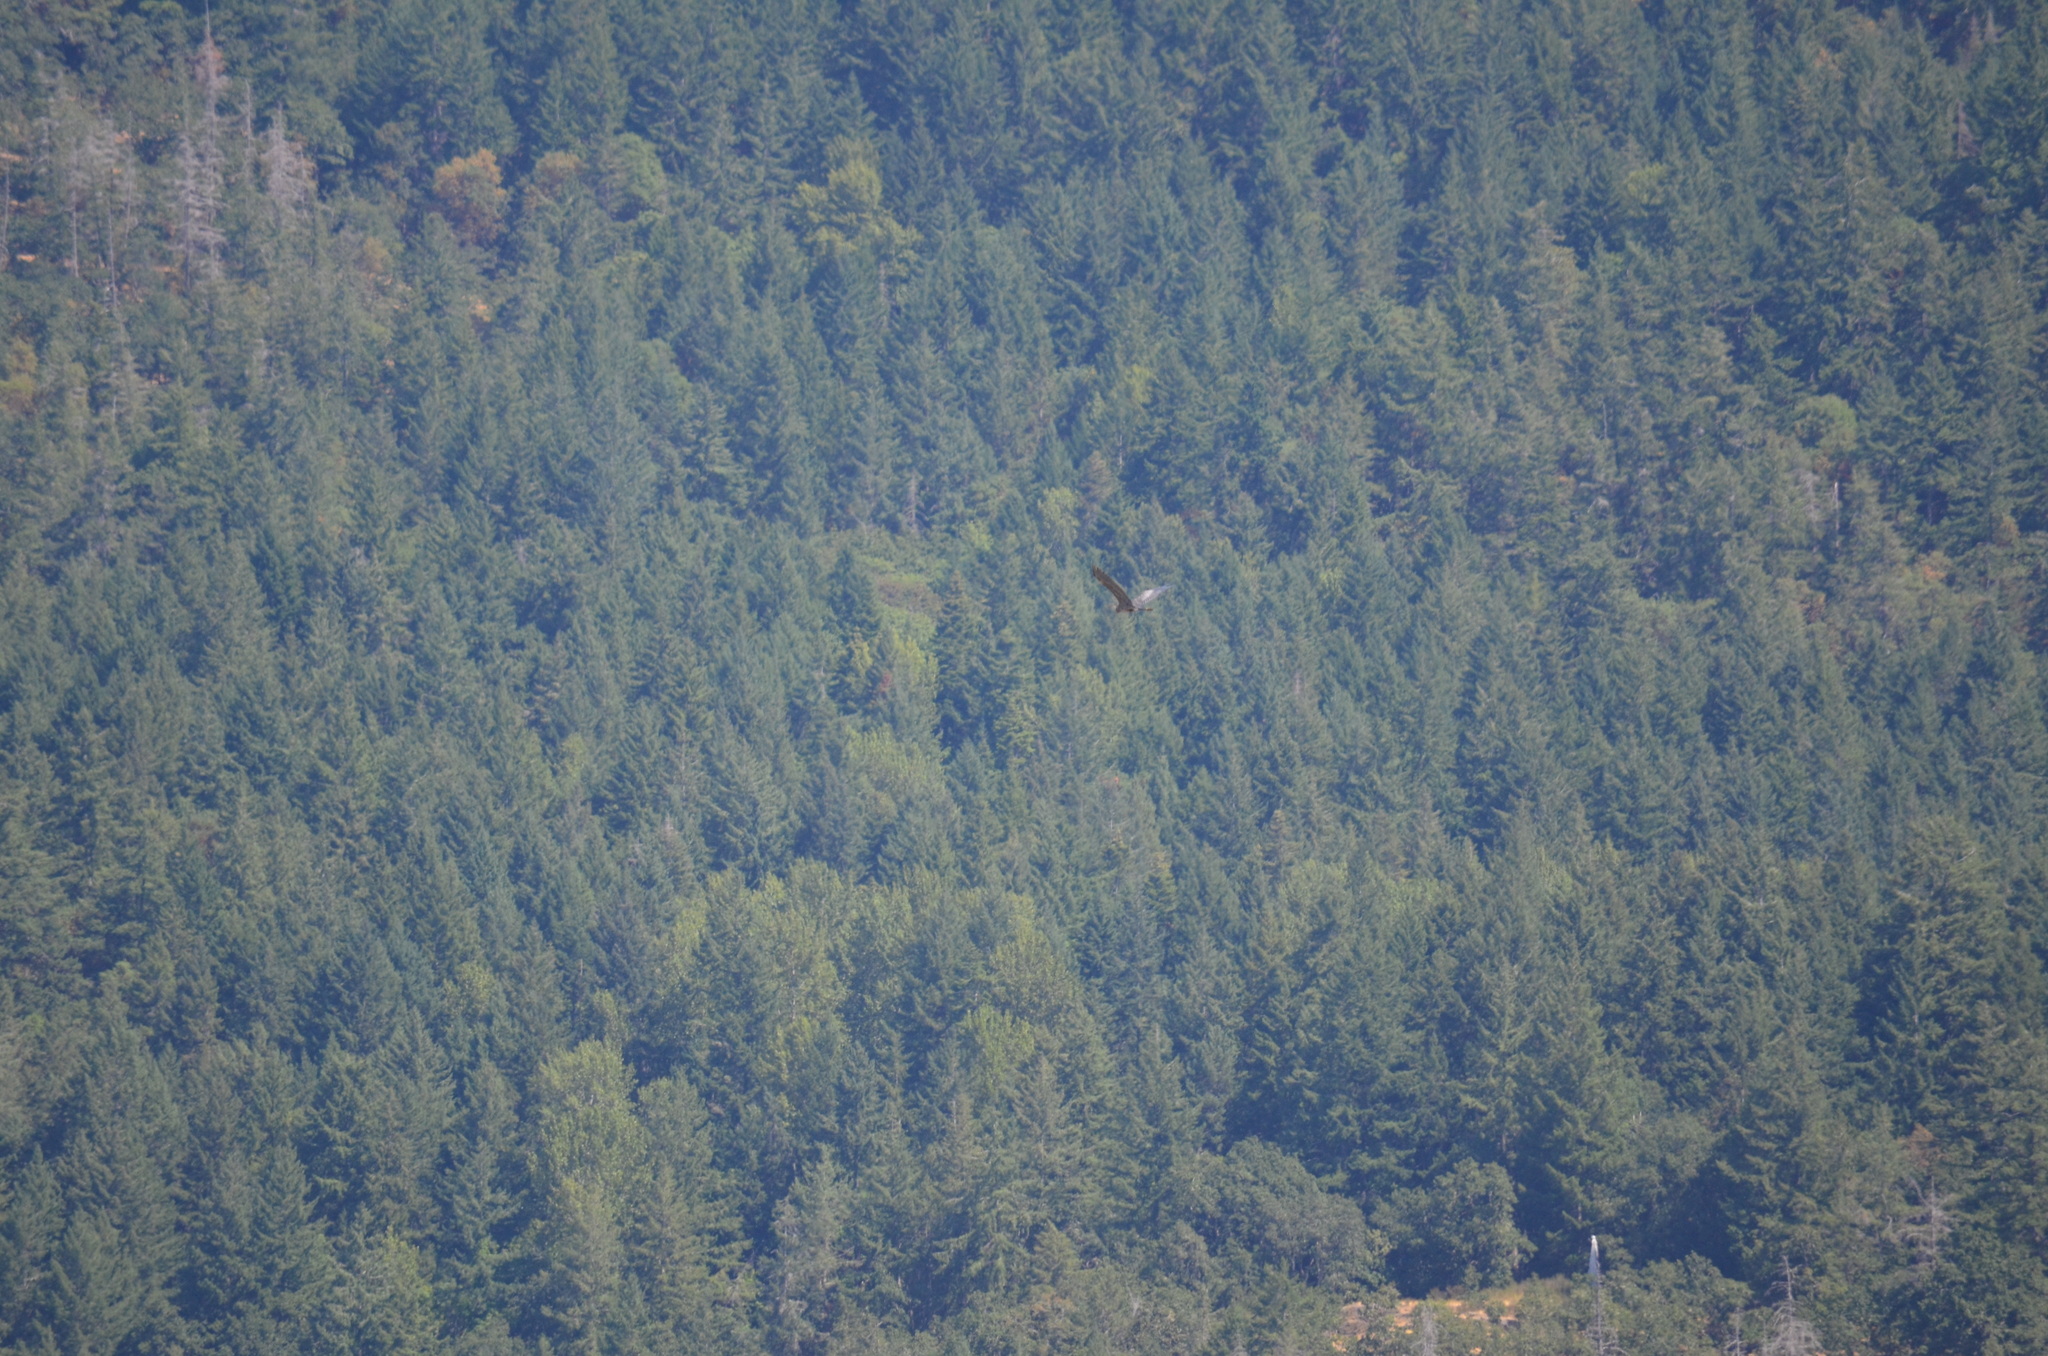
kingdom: Animalia
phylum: Chordata
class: Aves
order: Pelecaniformes
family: Ardeidae
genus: Ardea
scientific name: Ardea herodias
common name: Great blue heron
